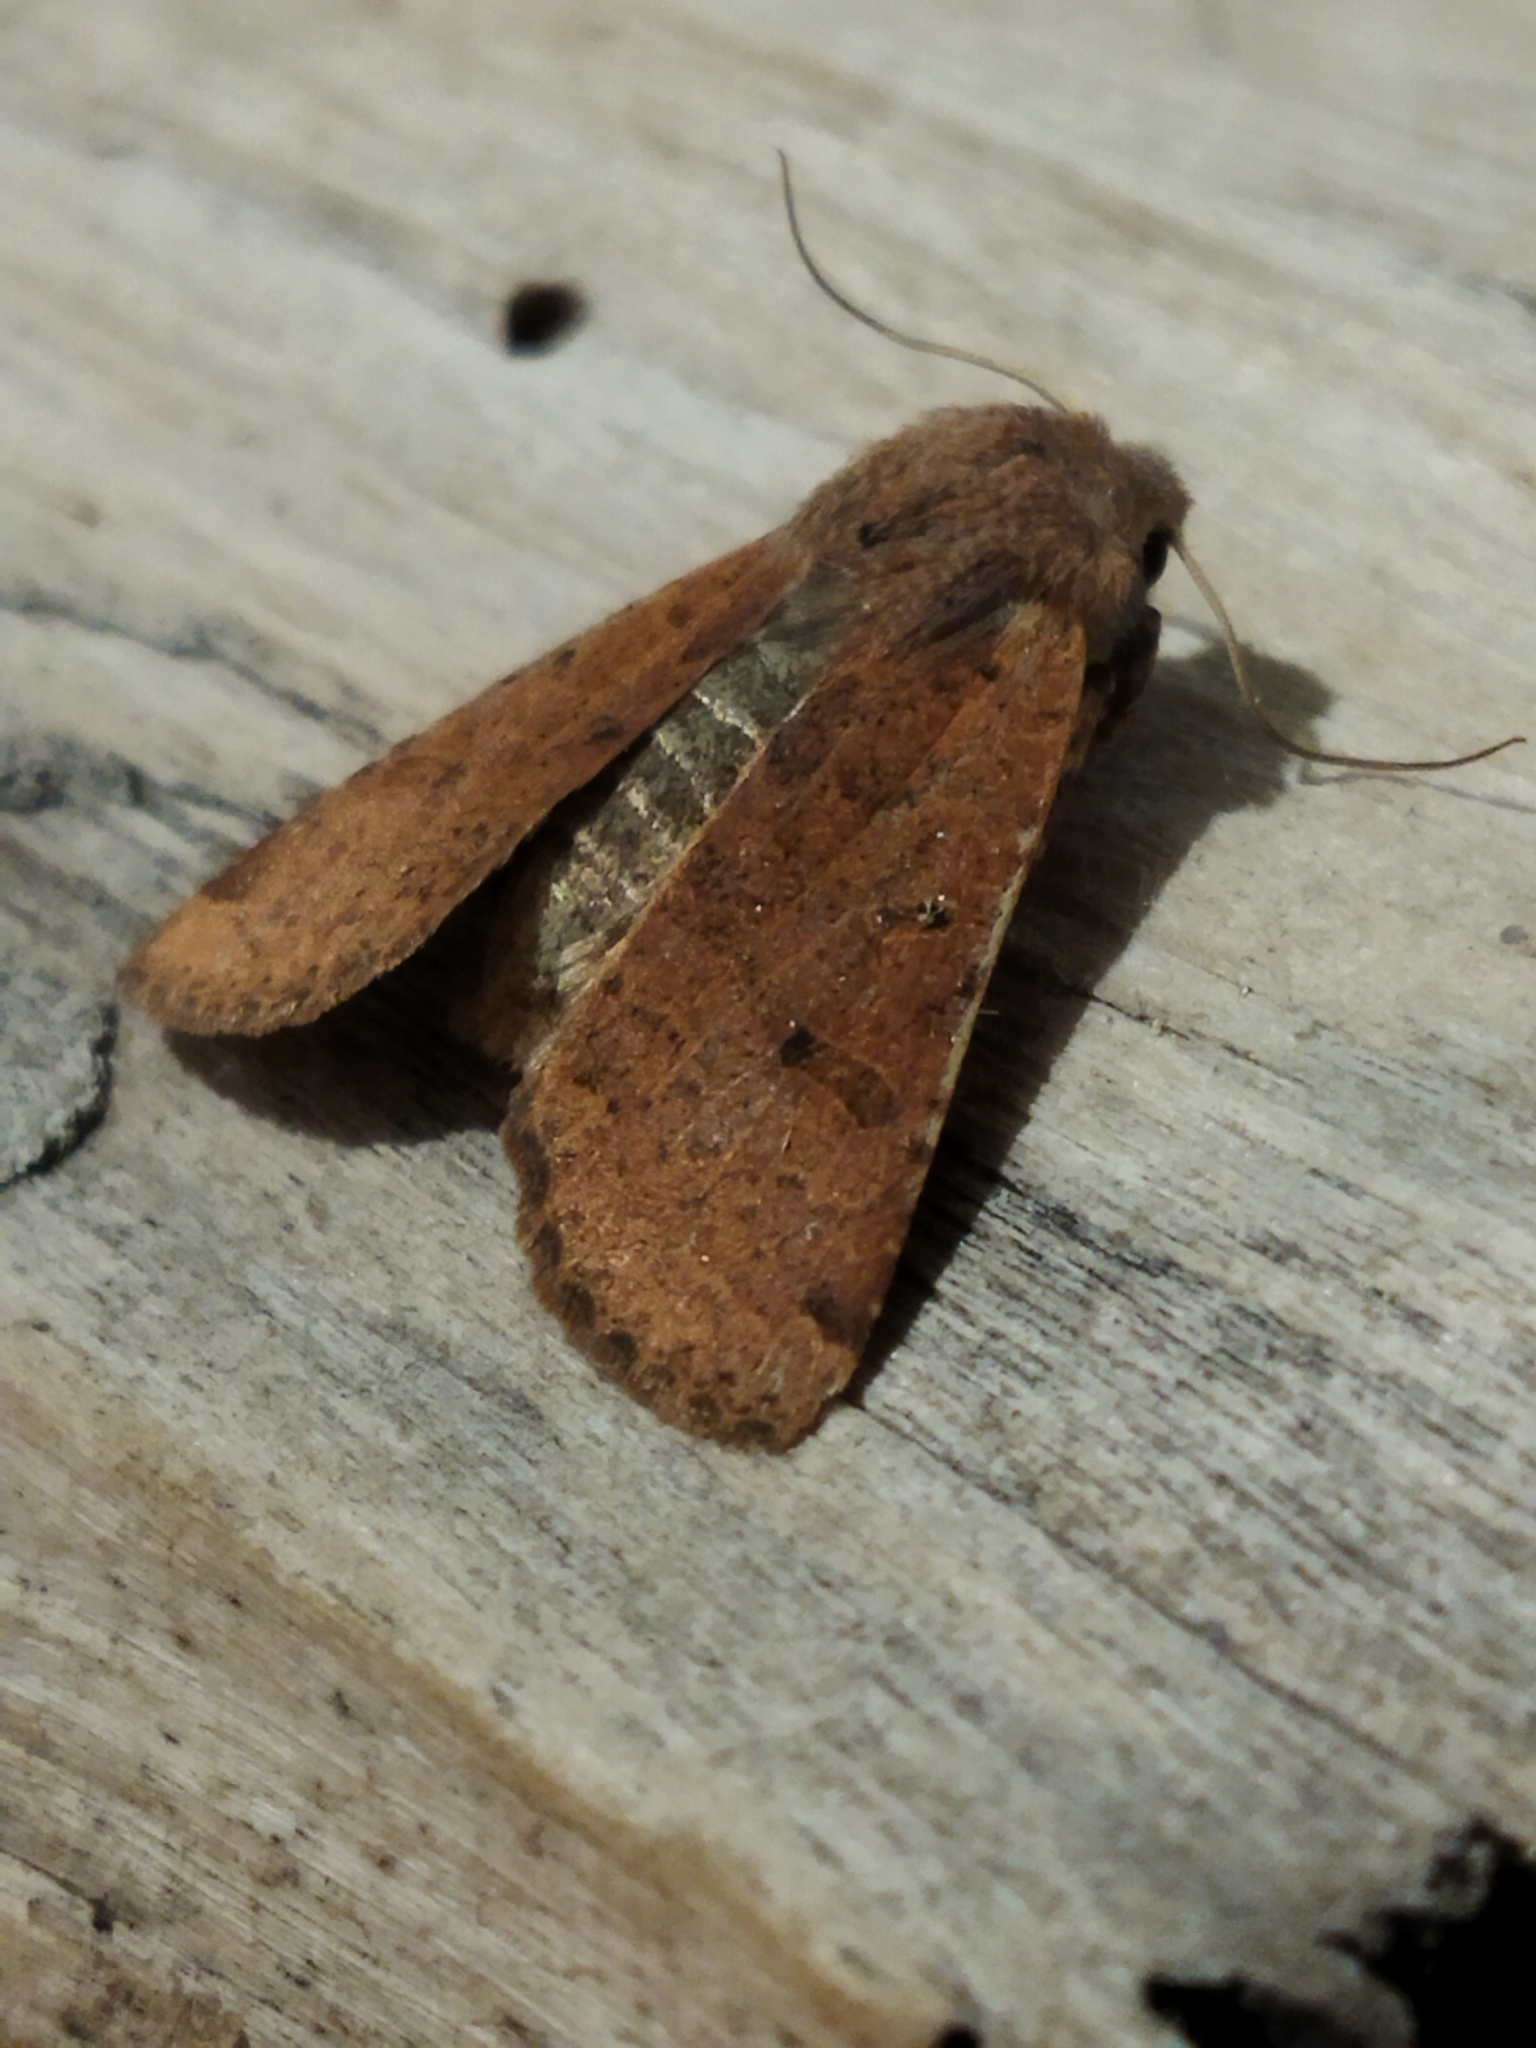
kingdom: Animalia
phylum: Arthropoda
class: Insecta
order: Lepidoptera
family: Noctuidae
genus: Agrochola
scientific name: Agrochola lychnidis
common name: Beaded chestnut
